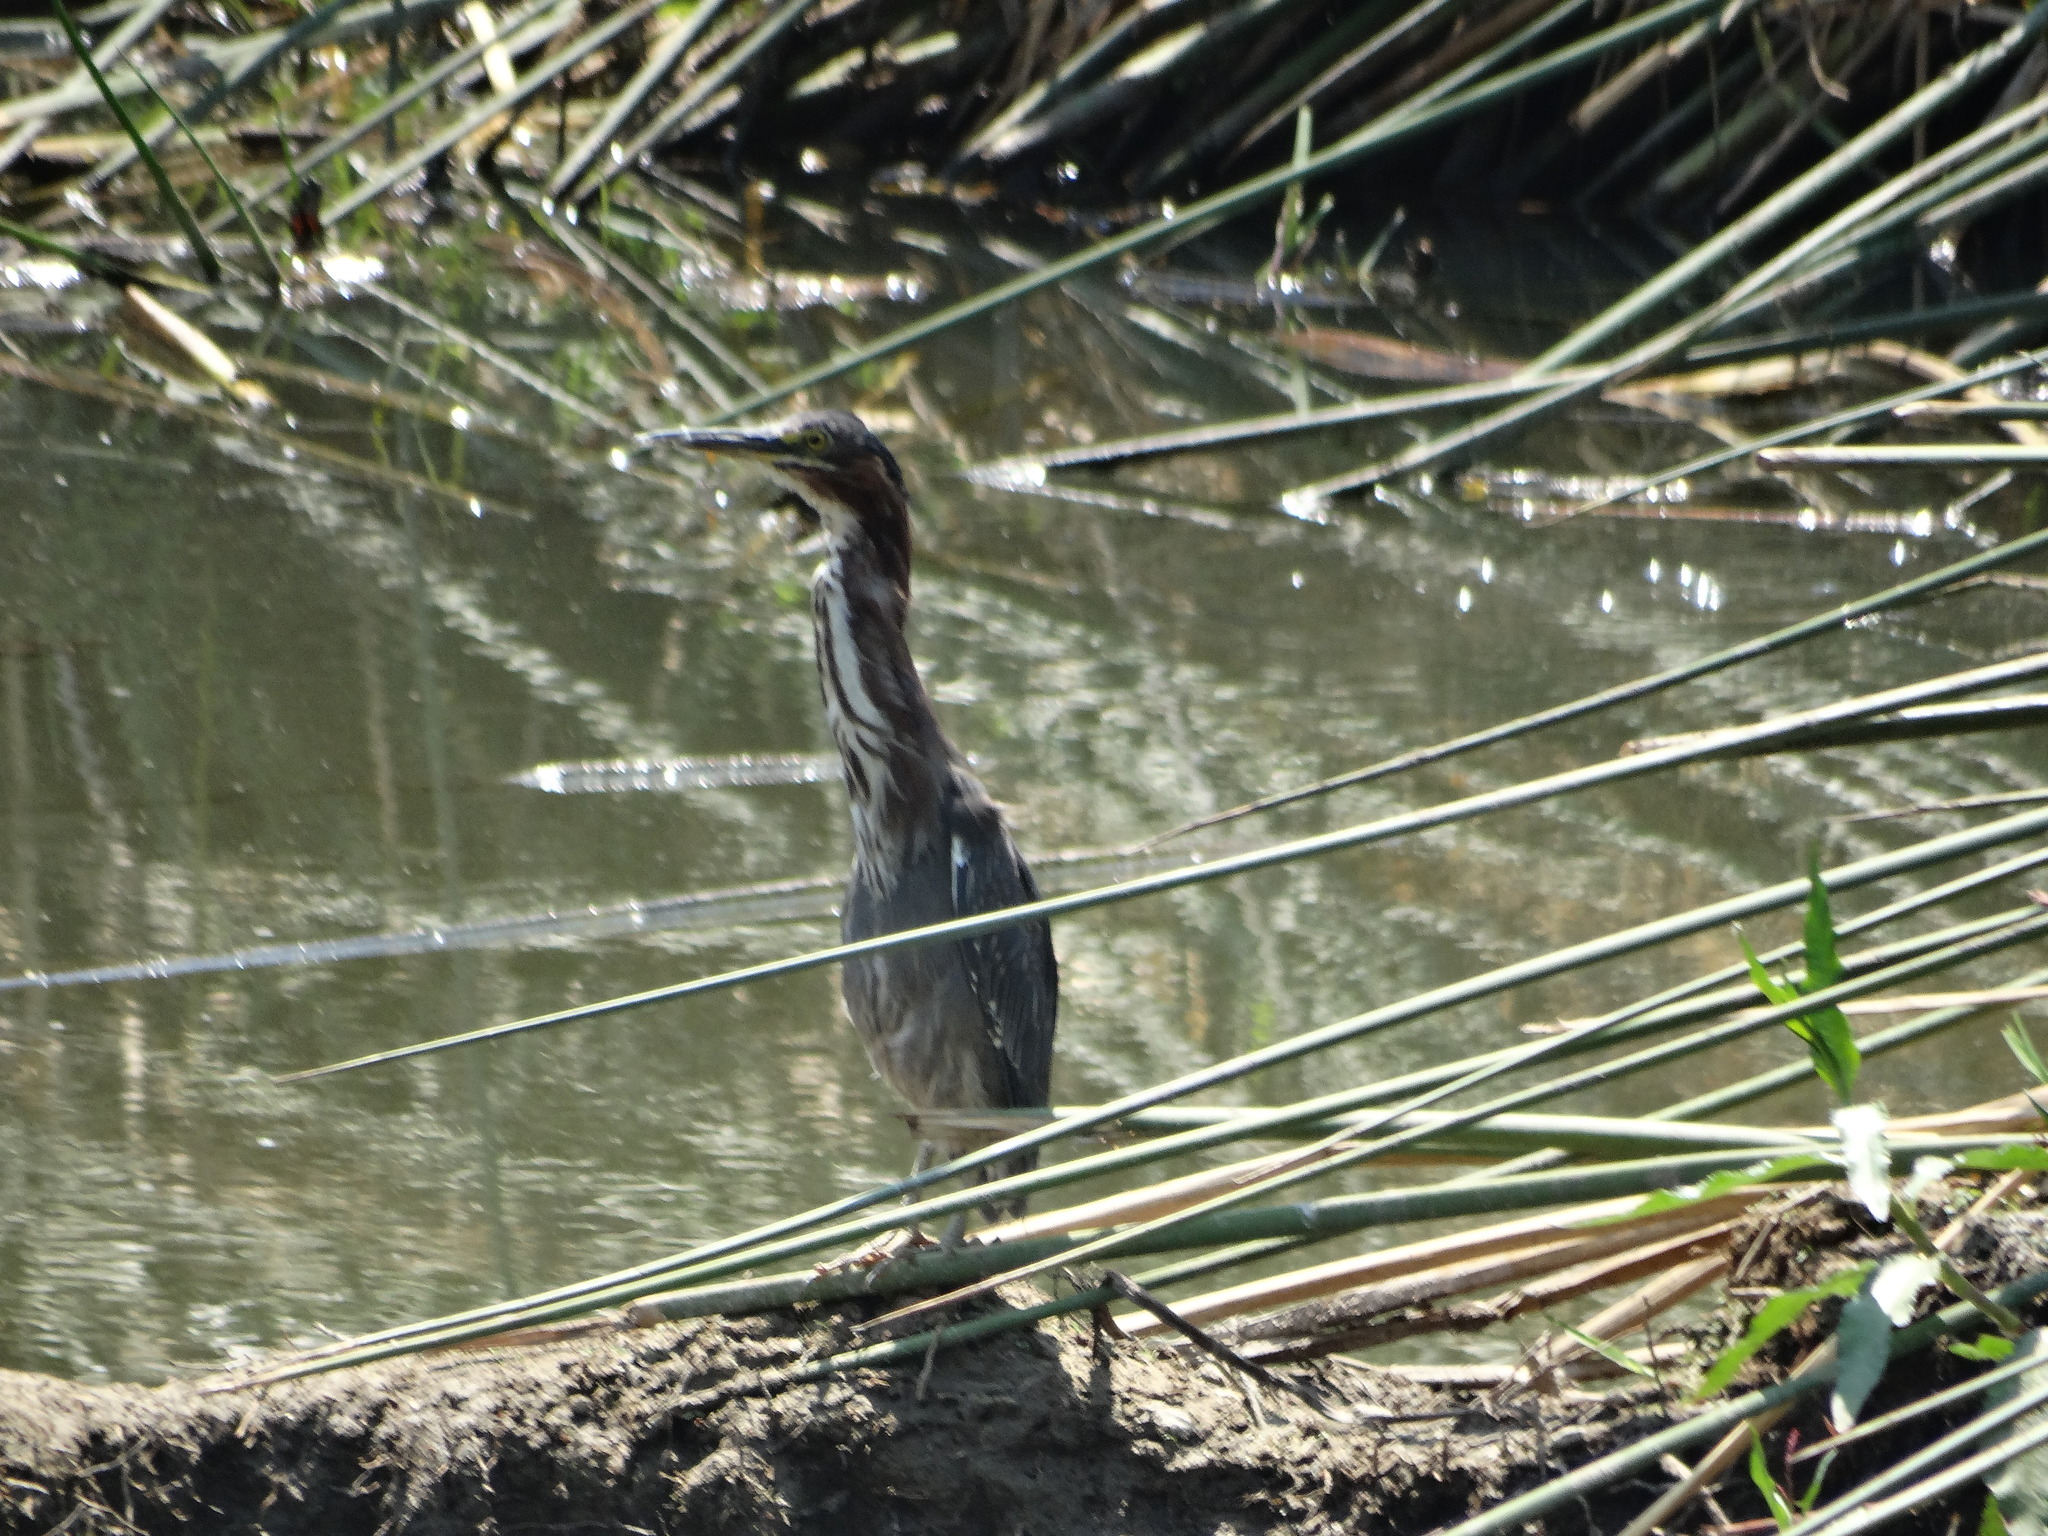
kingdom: Animalia
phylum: Chordata
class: Aves
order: Pelecaniformes
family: Ardeidae
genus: Butorides
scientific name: Butorides virescens
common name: Green heron
